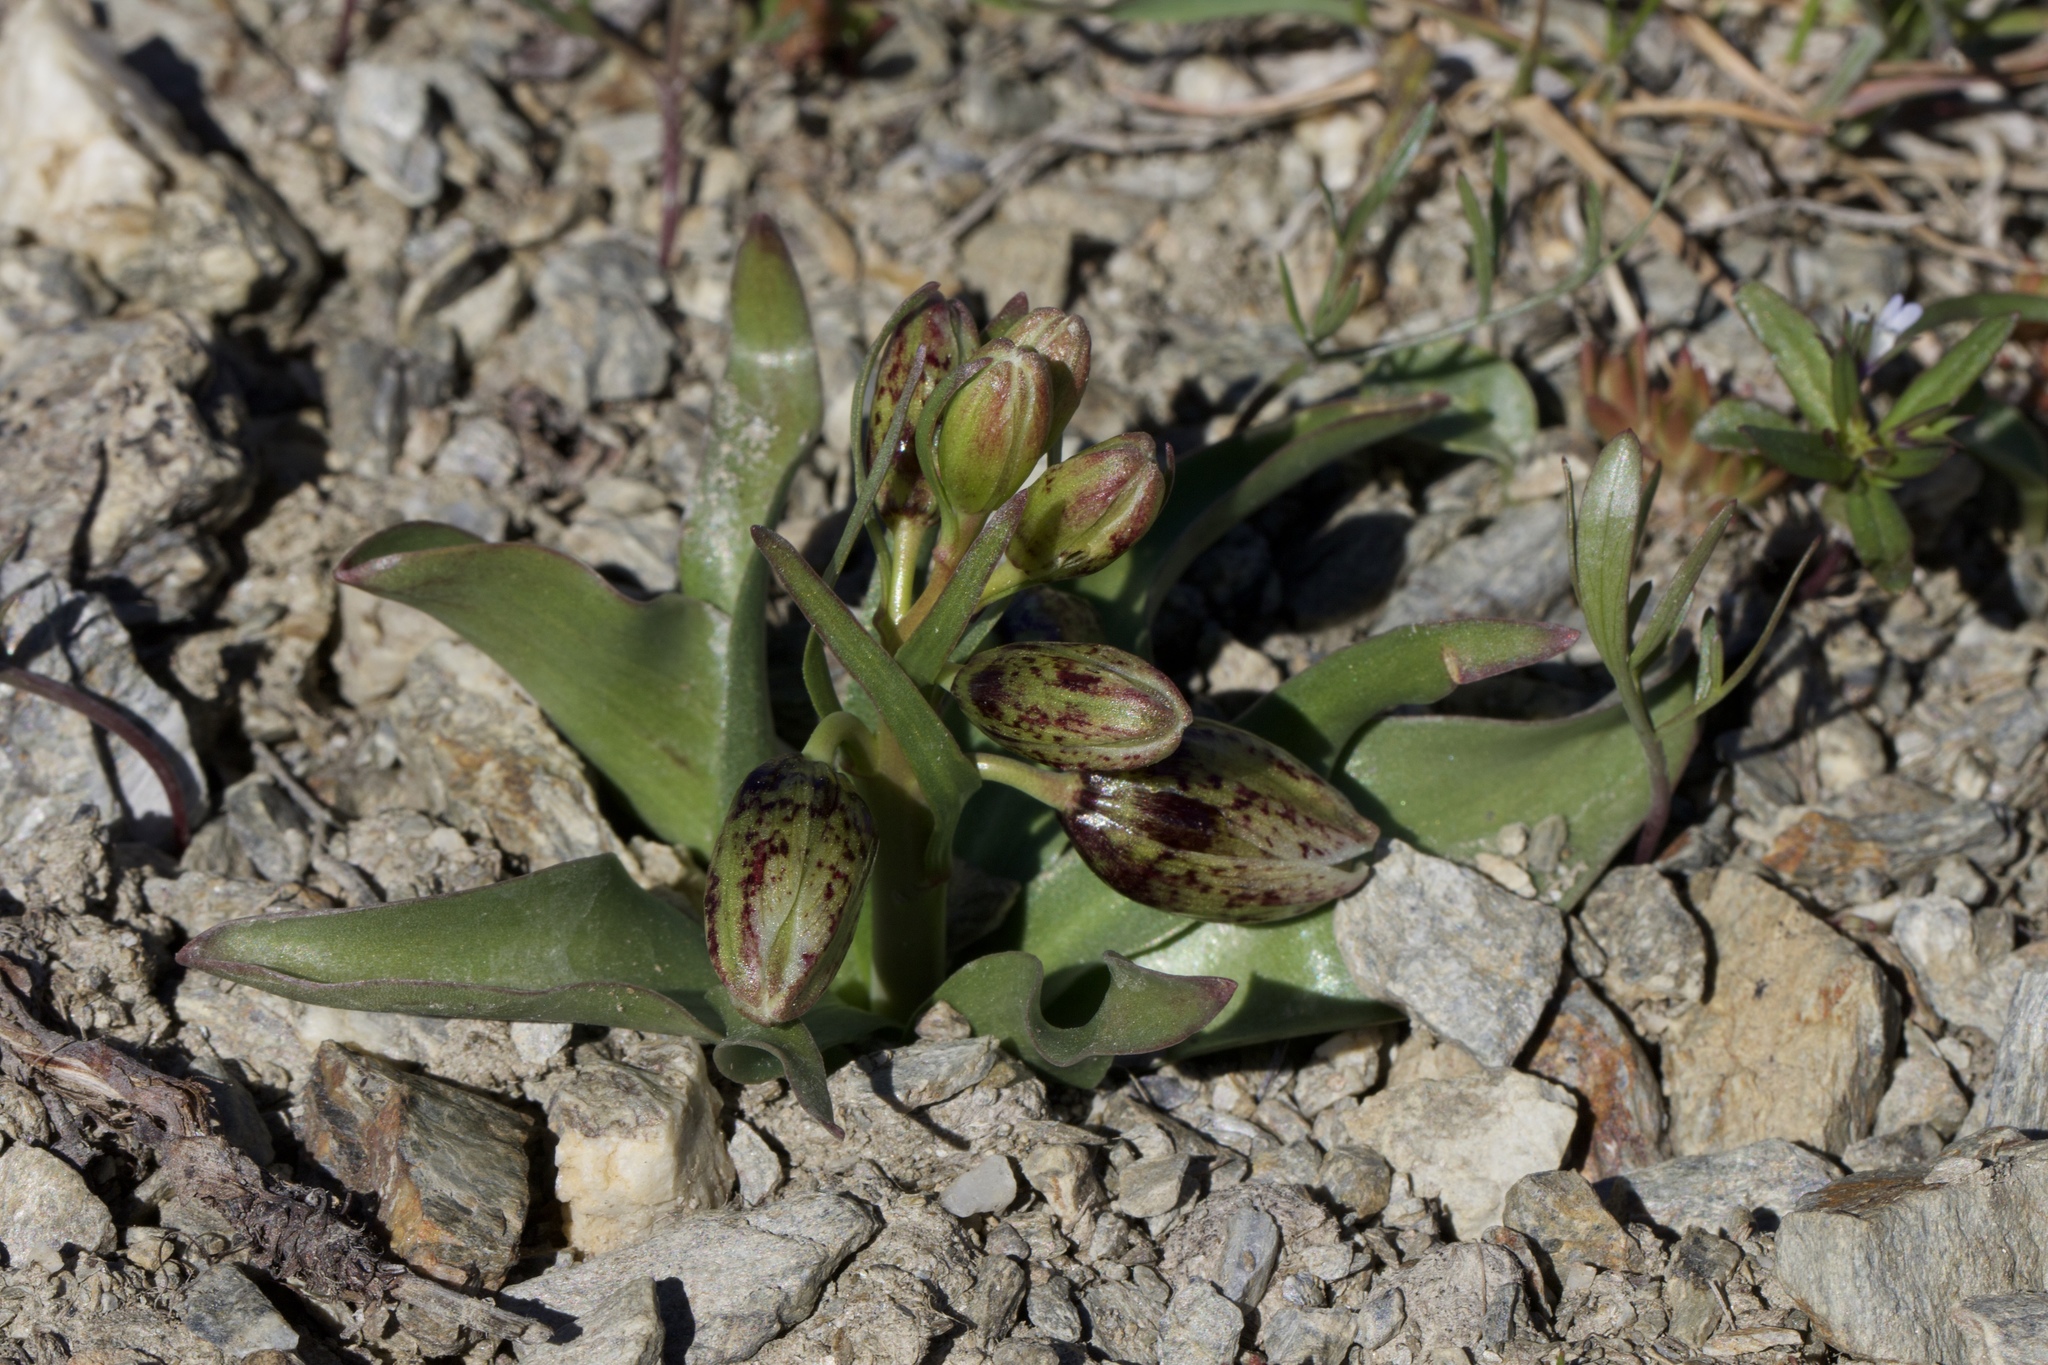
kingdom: Plantae
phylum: Tracheophyta
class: Liliopsida
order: Liliales
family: Liliaceae
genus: Fritillaria
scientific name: Fritillaria purdyi
